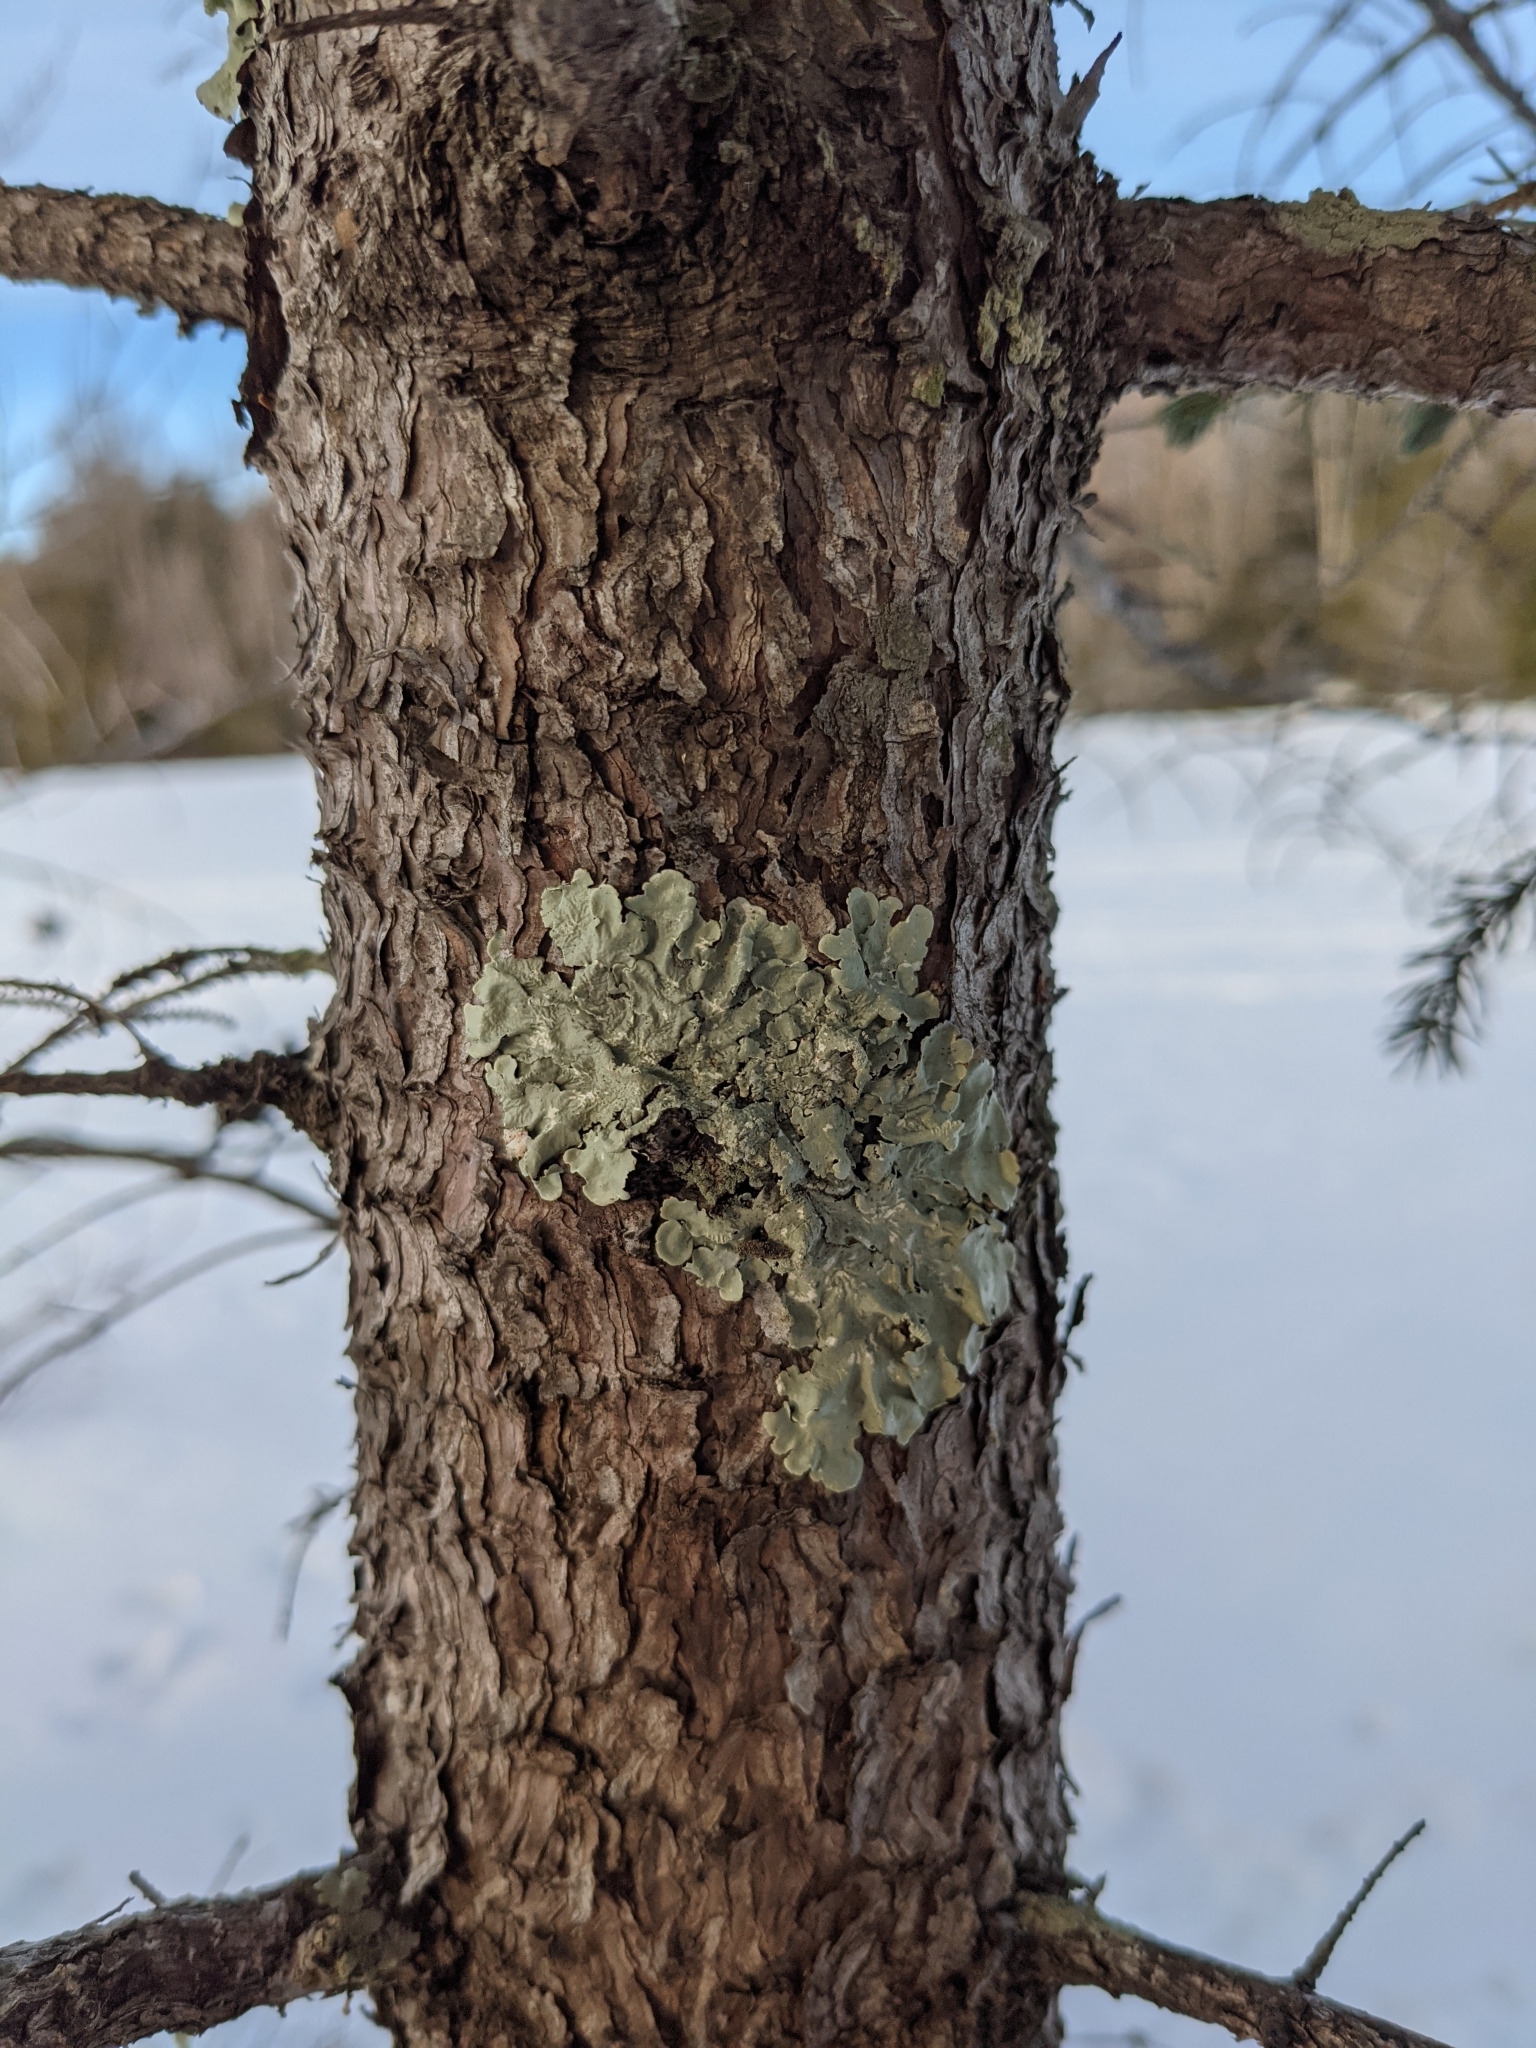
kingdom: Fungi
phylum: Ascomycota
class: Lecanoromycetes
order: Lecanorales
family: Parmeliaceae
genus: Flavoparmelia
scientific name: Flavoparmelia caperata
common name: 40-mile per hour lichen
